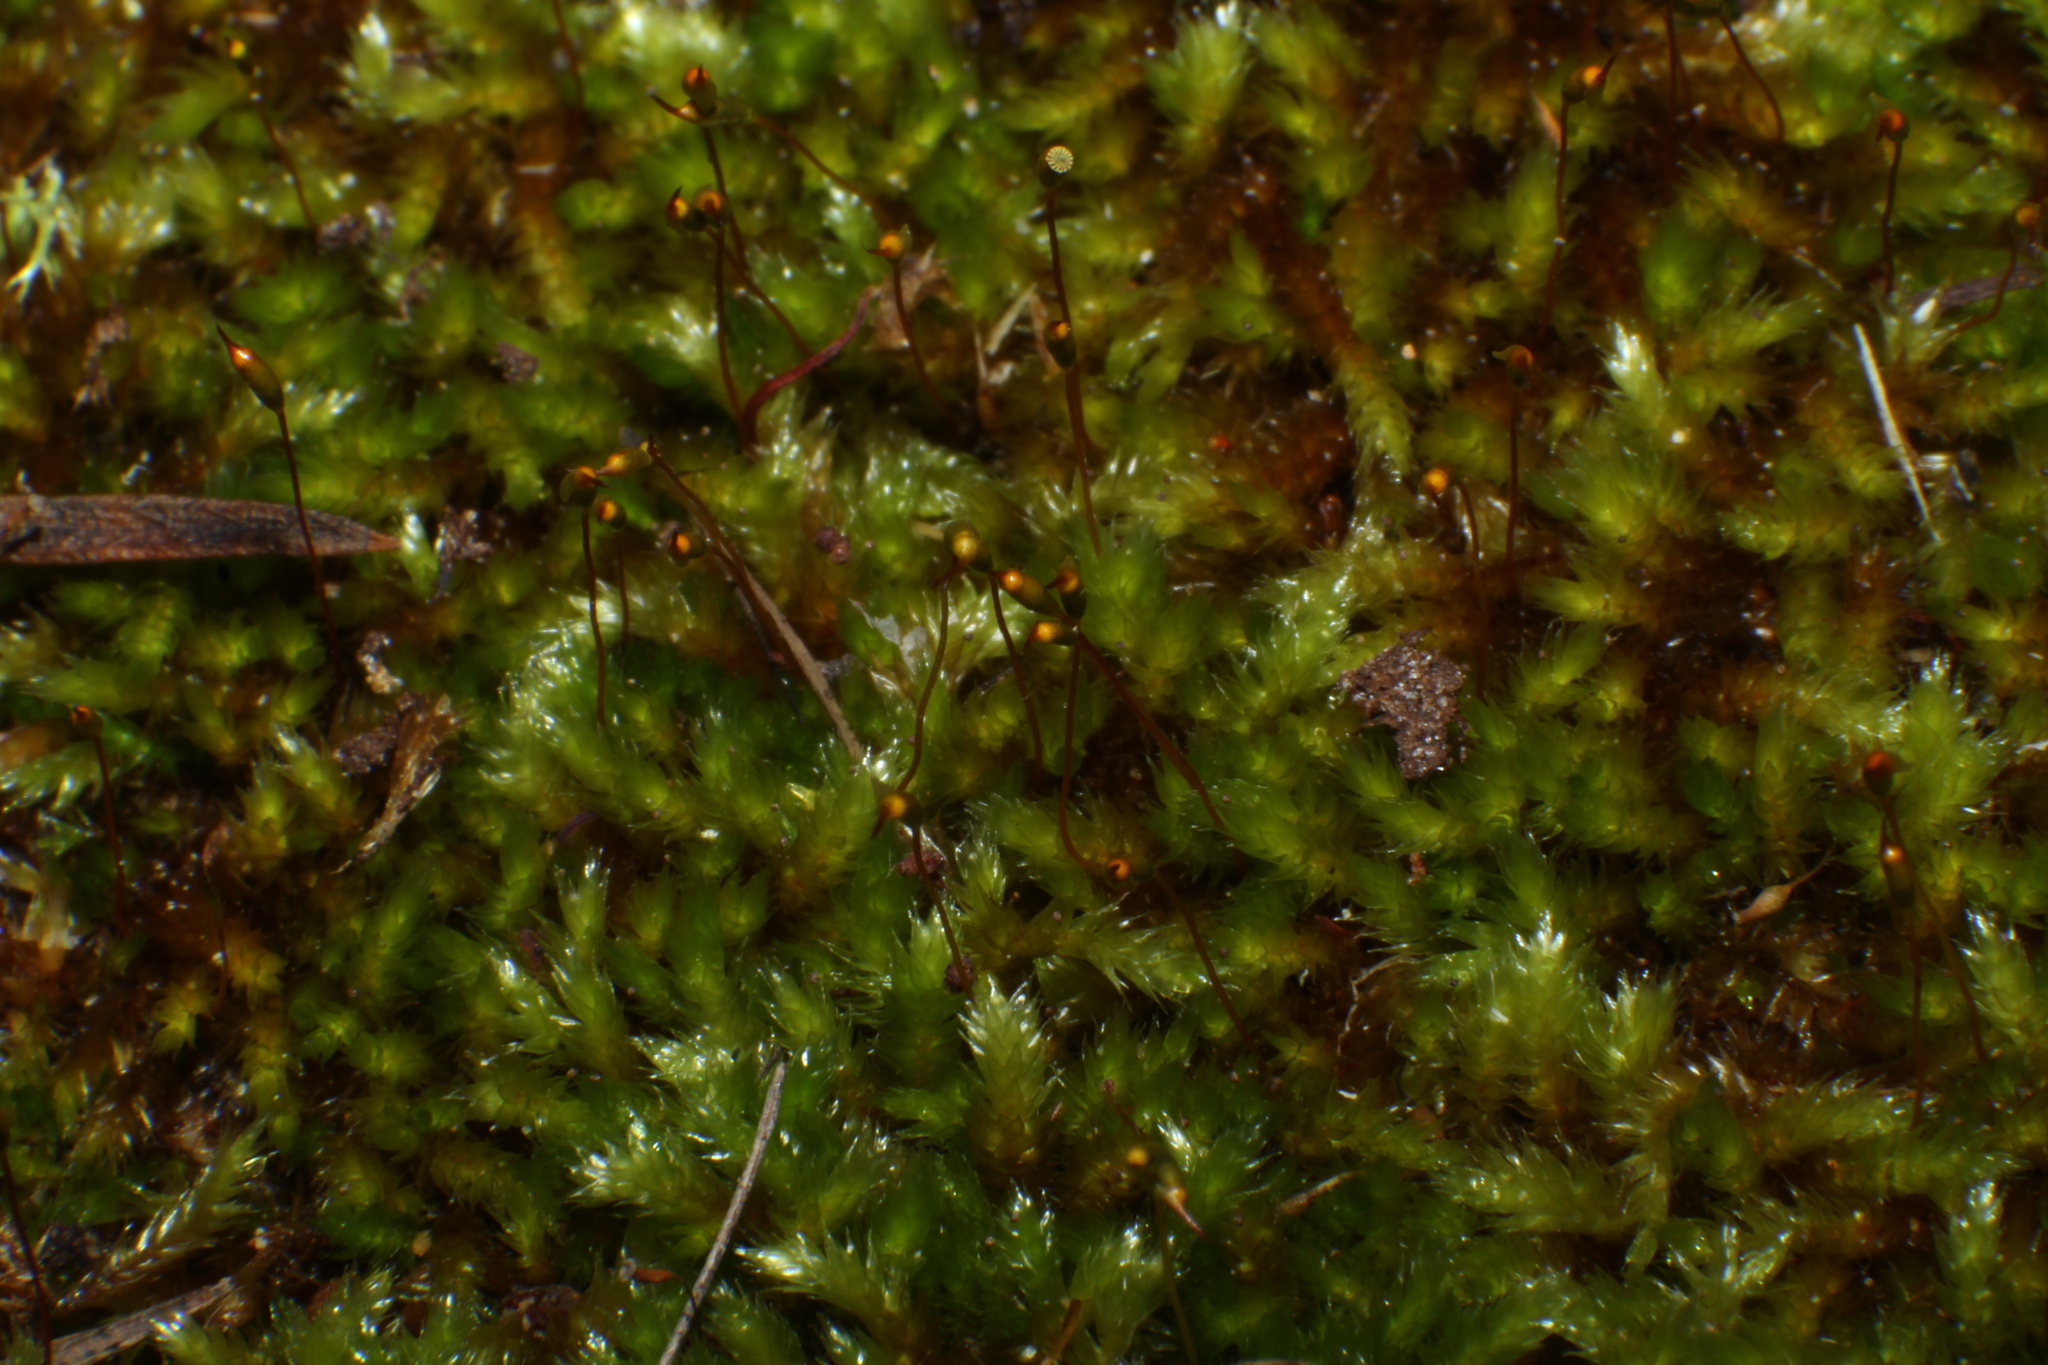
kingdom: Plantae
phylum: Bryophyta
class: Bryopsida
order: Hypnales
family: Sematophyllaceae
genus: Sematophyllum
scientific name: Sematophyllum homomallum
